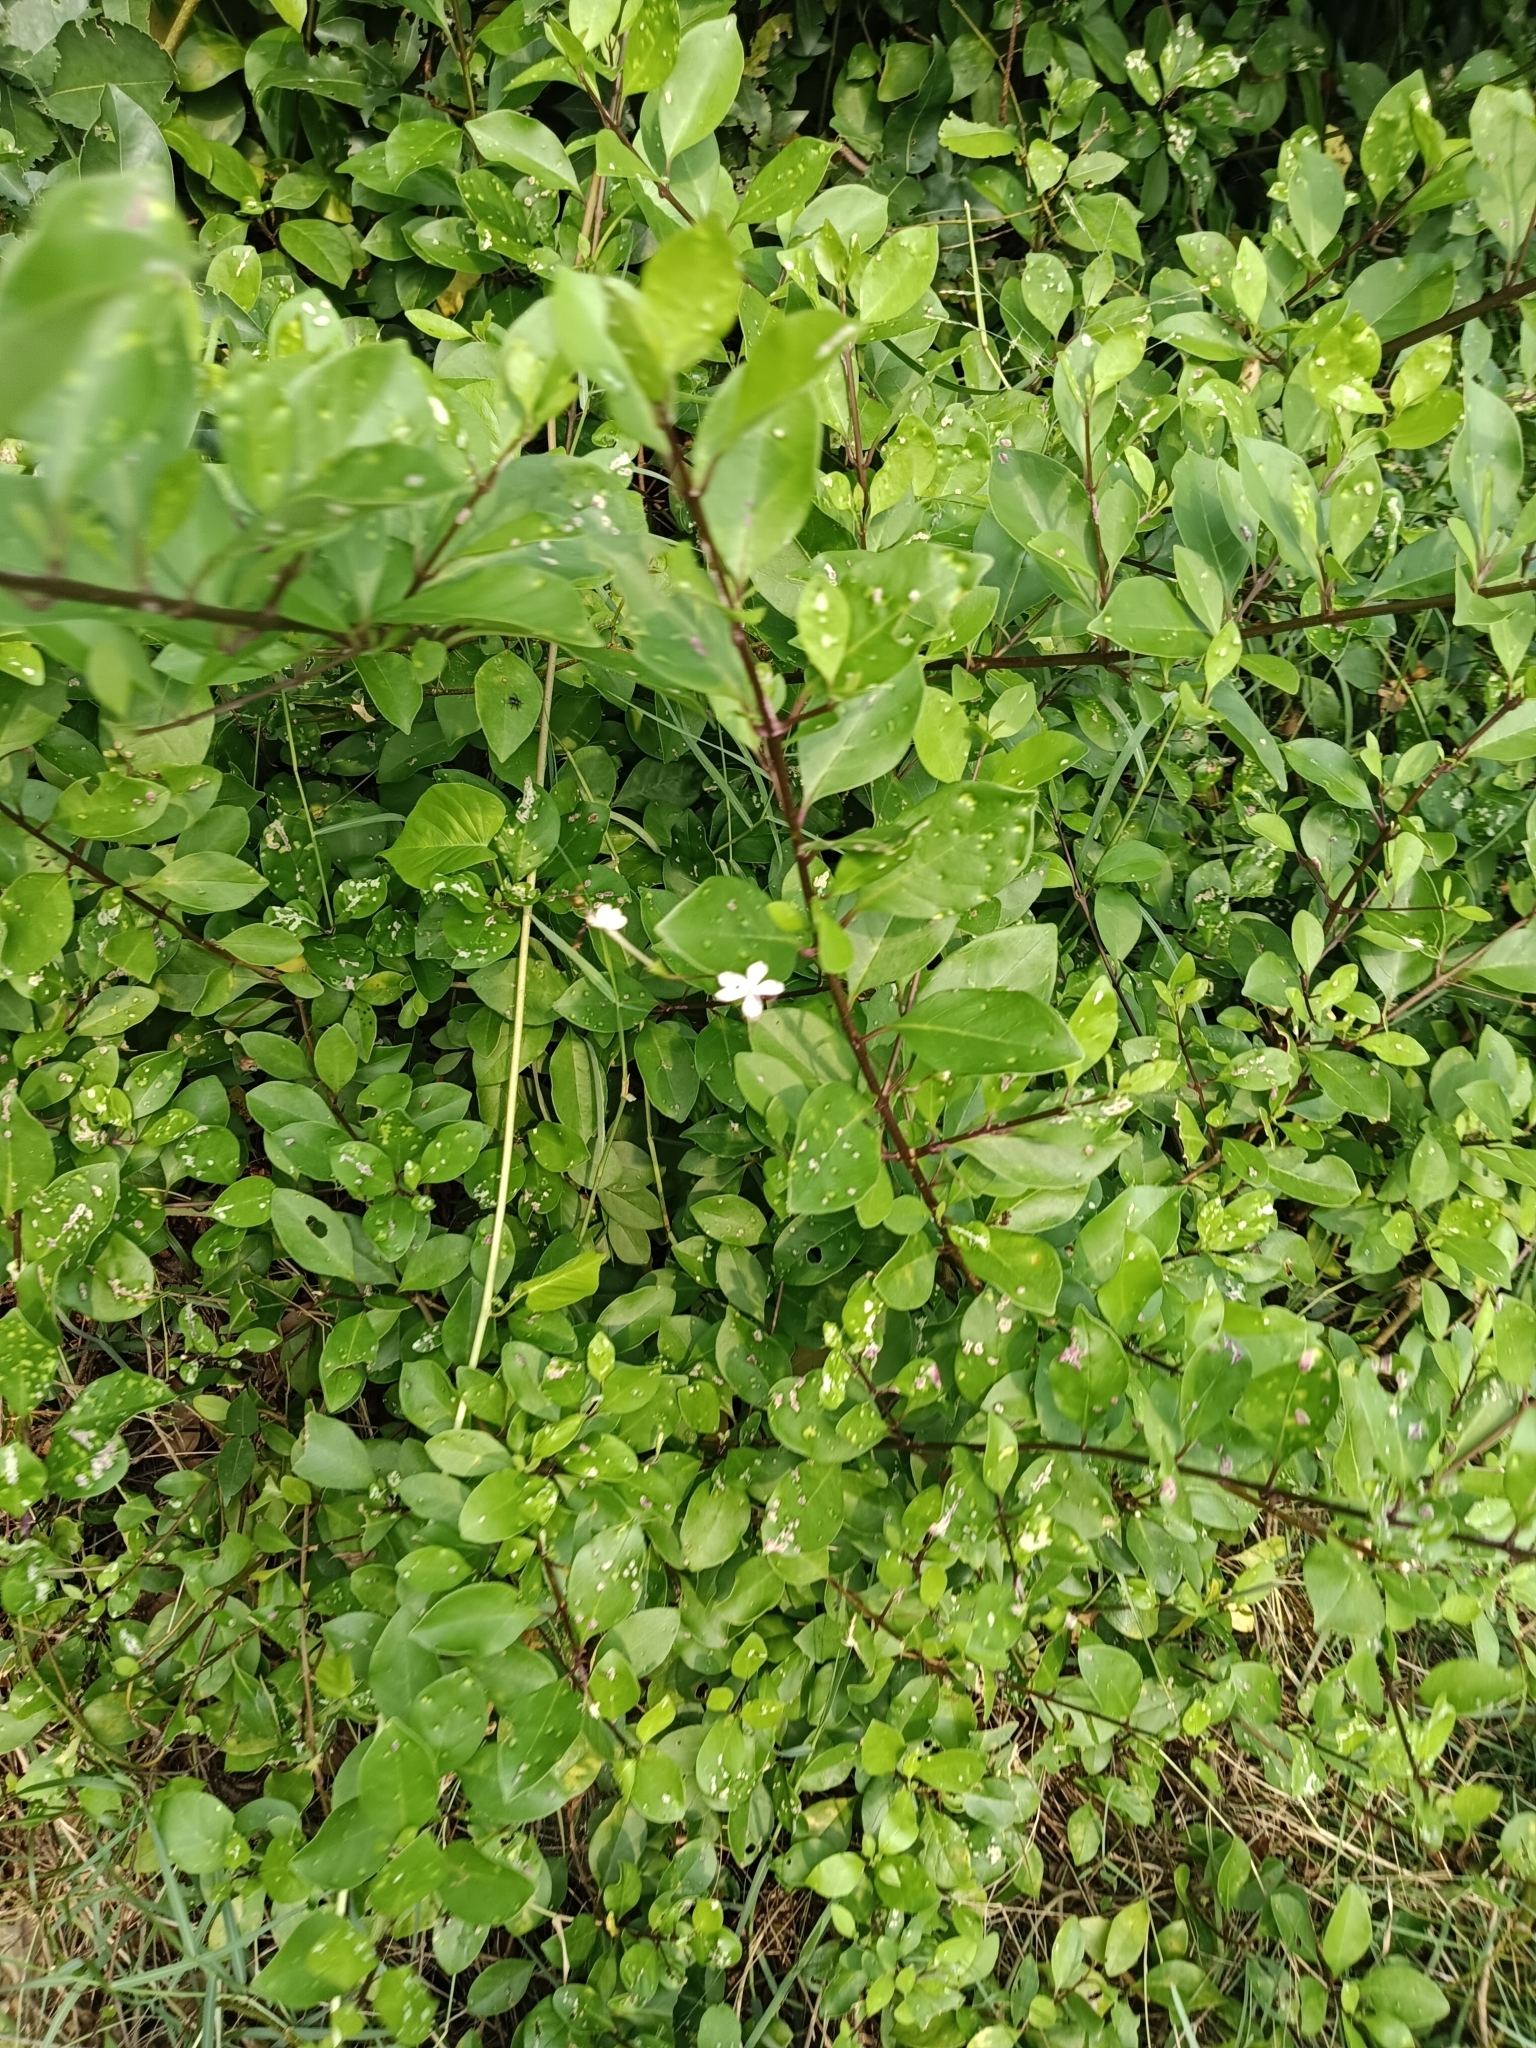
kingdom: Plantae
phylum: Tracheophyta
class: Magnoliopsida
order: Lamiales
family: Lamiaceae
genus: Volkameria
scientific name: Volkameria inermis
